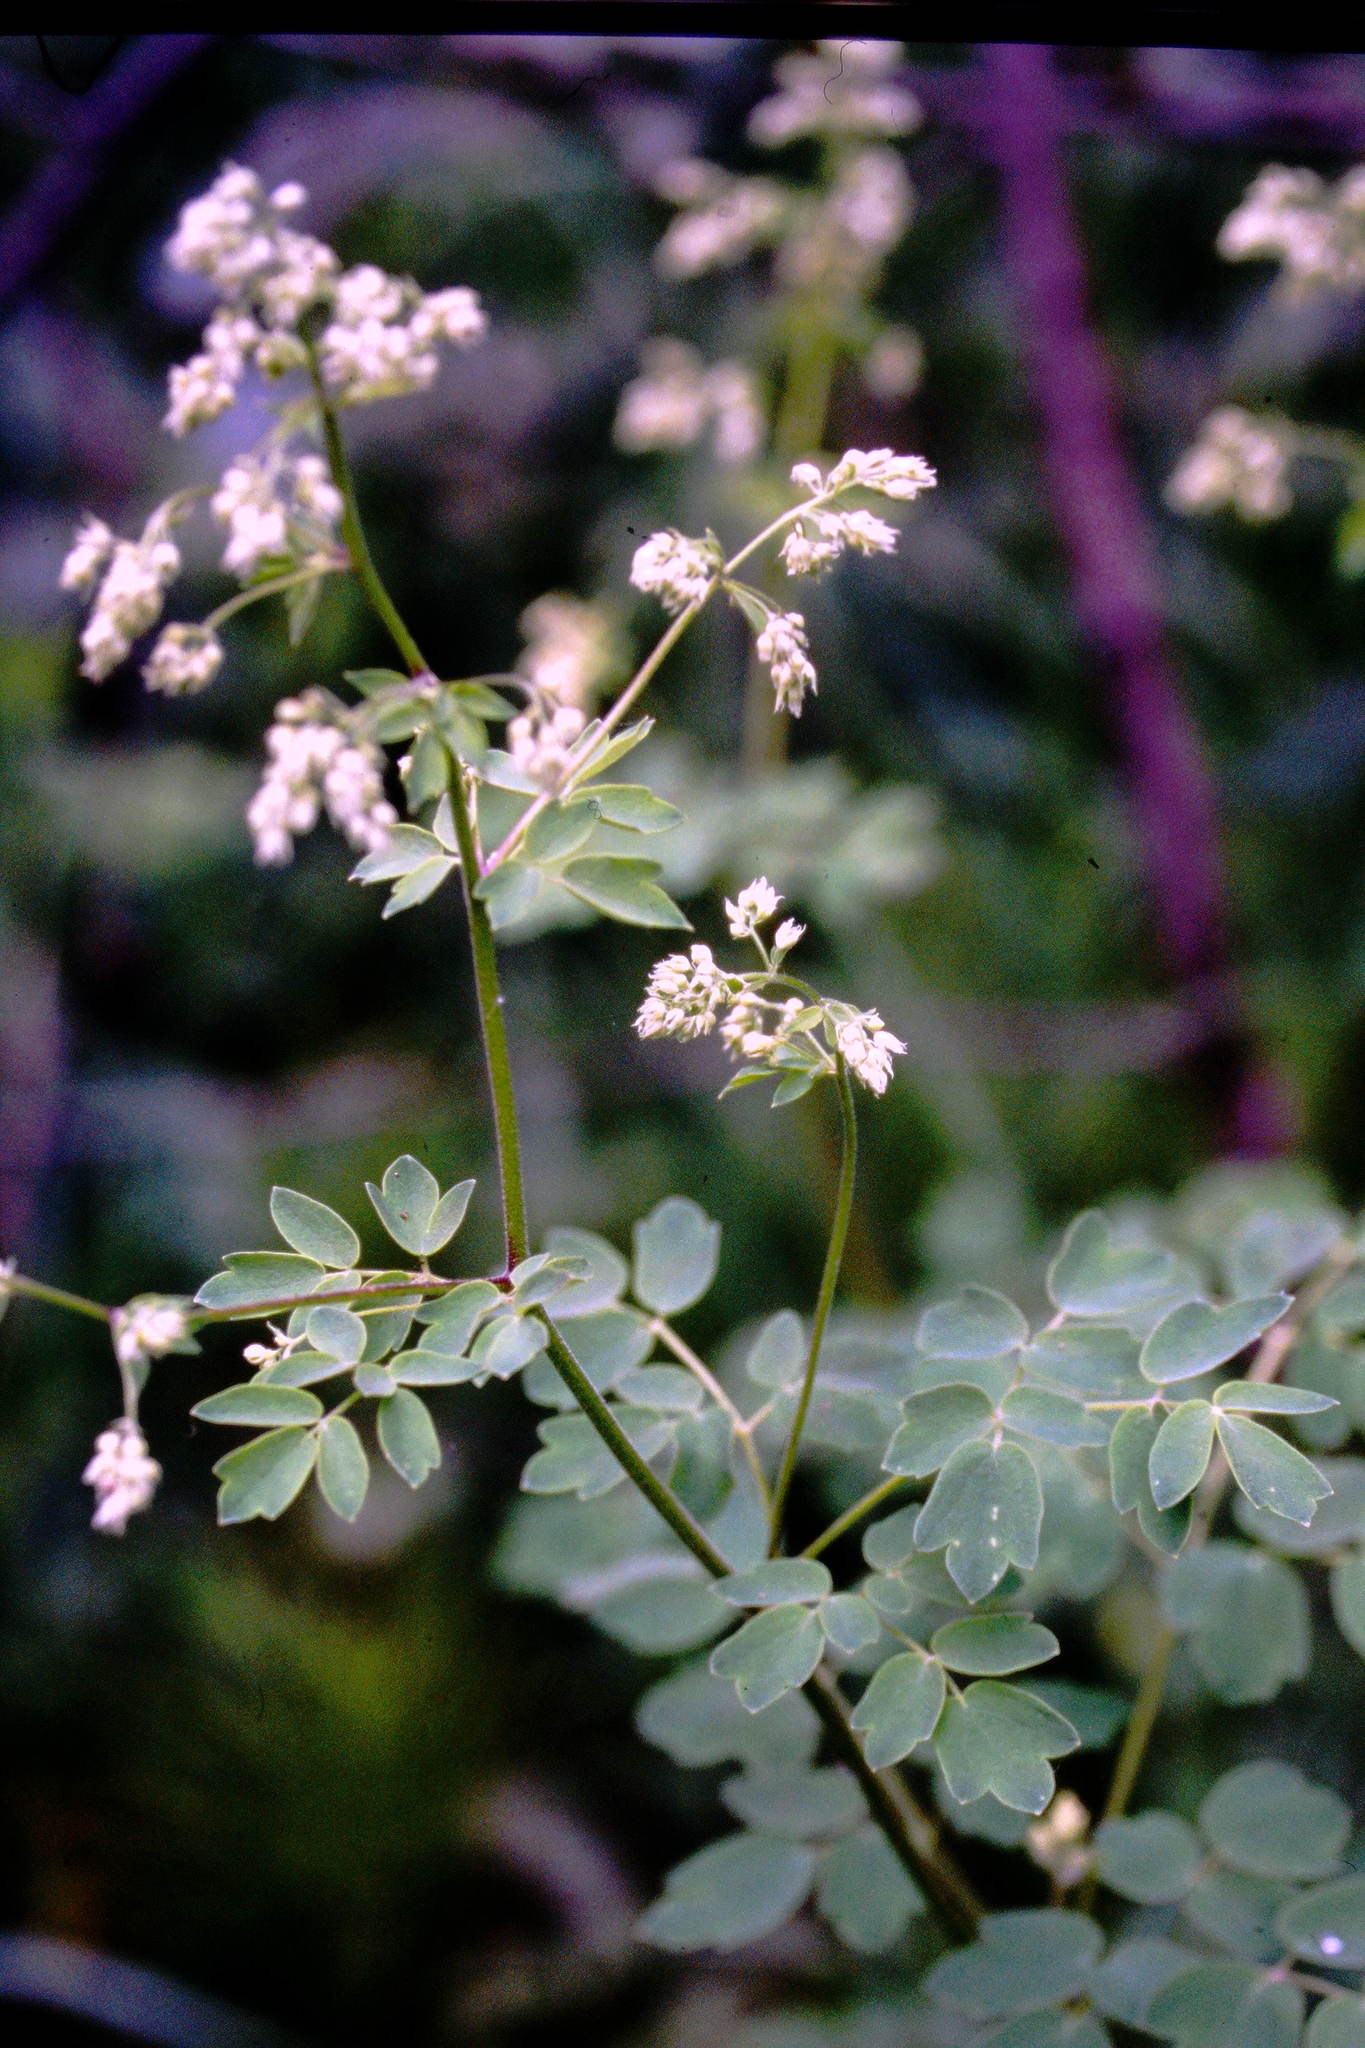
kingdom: Plantae
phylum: Tracheophyta
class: Magnoliopsida
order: Ranunculales
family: Ranunculaceae
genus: Thalictrum
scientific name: Thalictrum dasycarpum
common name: Purple meadow-rue
